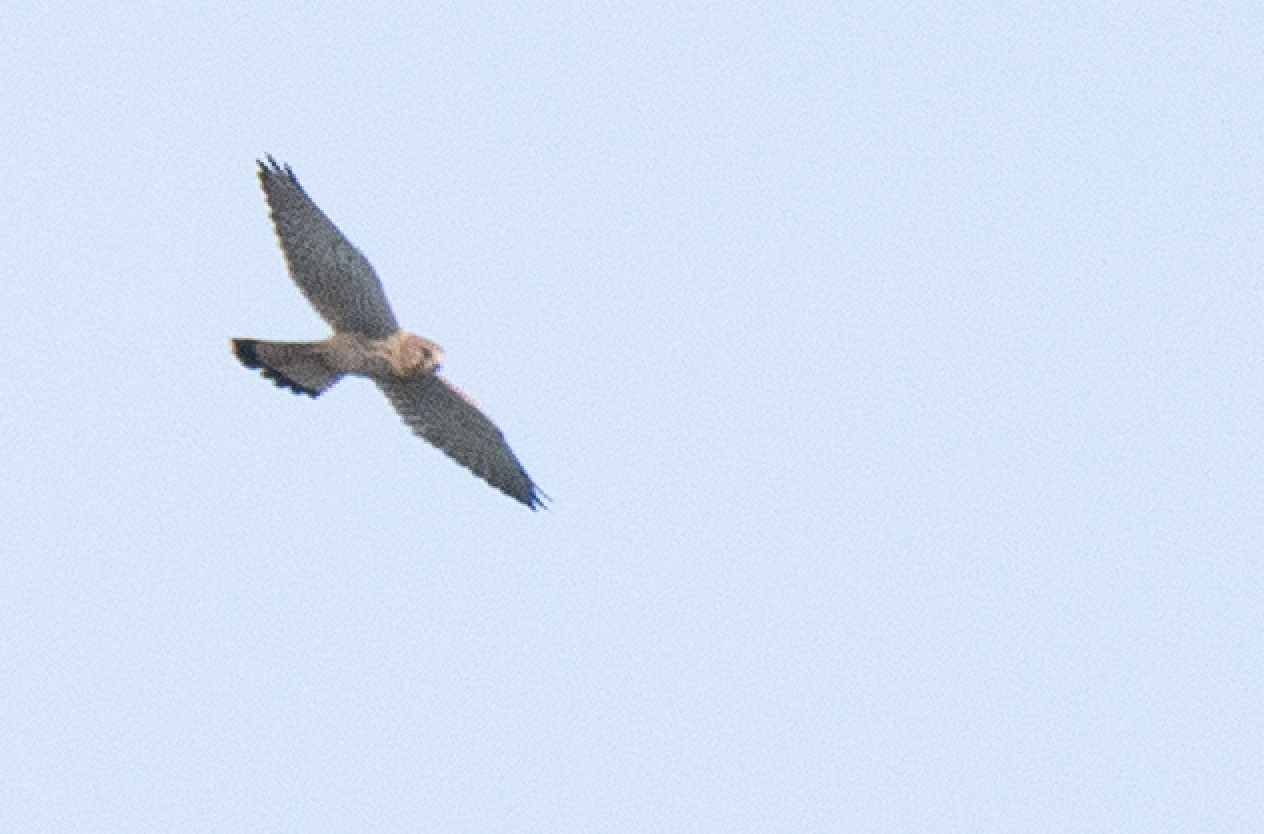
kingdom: Animalia
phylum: Chordata
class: Aves
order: Falconiformes
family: Falconidae
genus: Falco
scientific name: Falco tinnunculus
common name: Common kestrel
